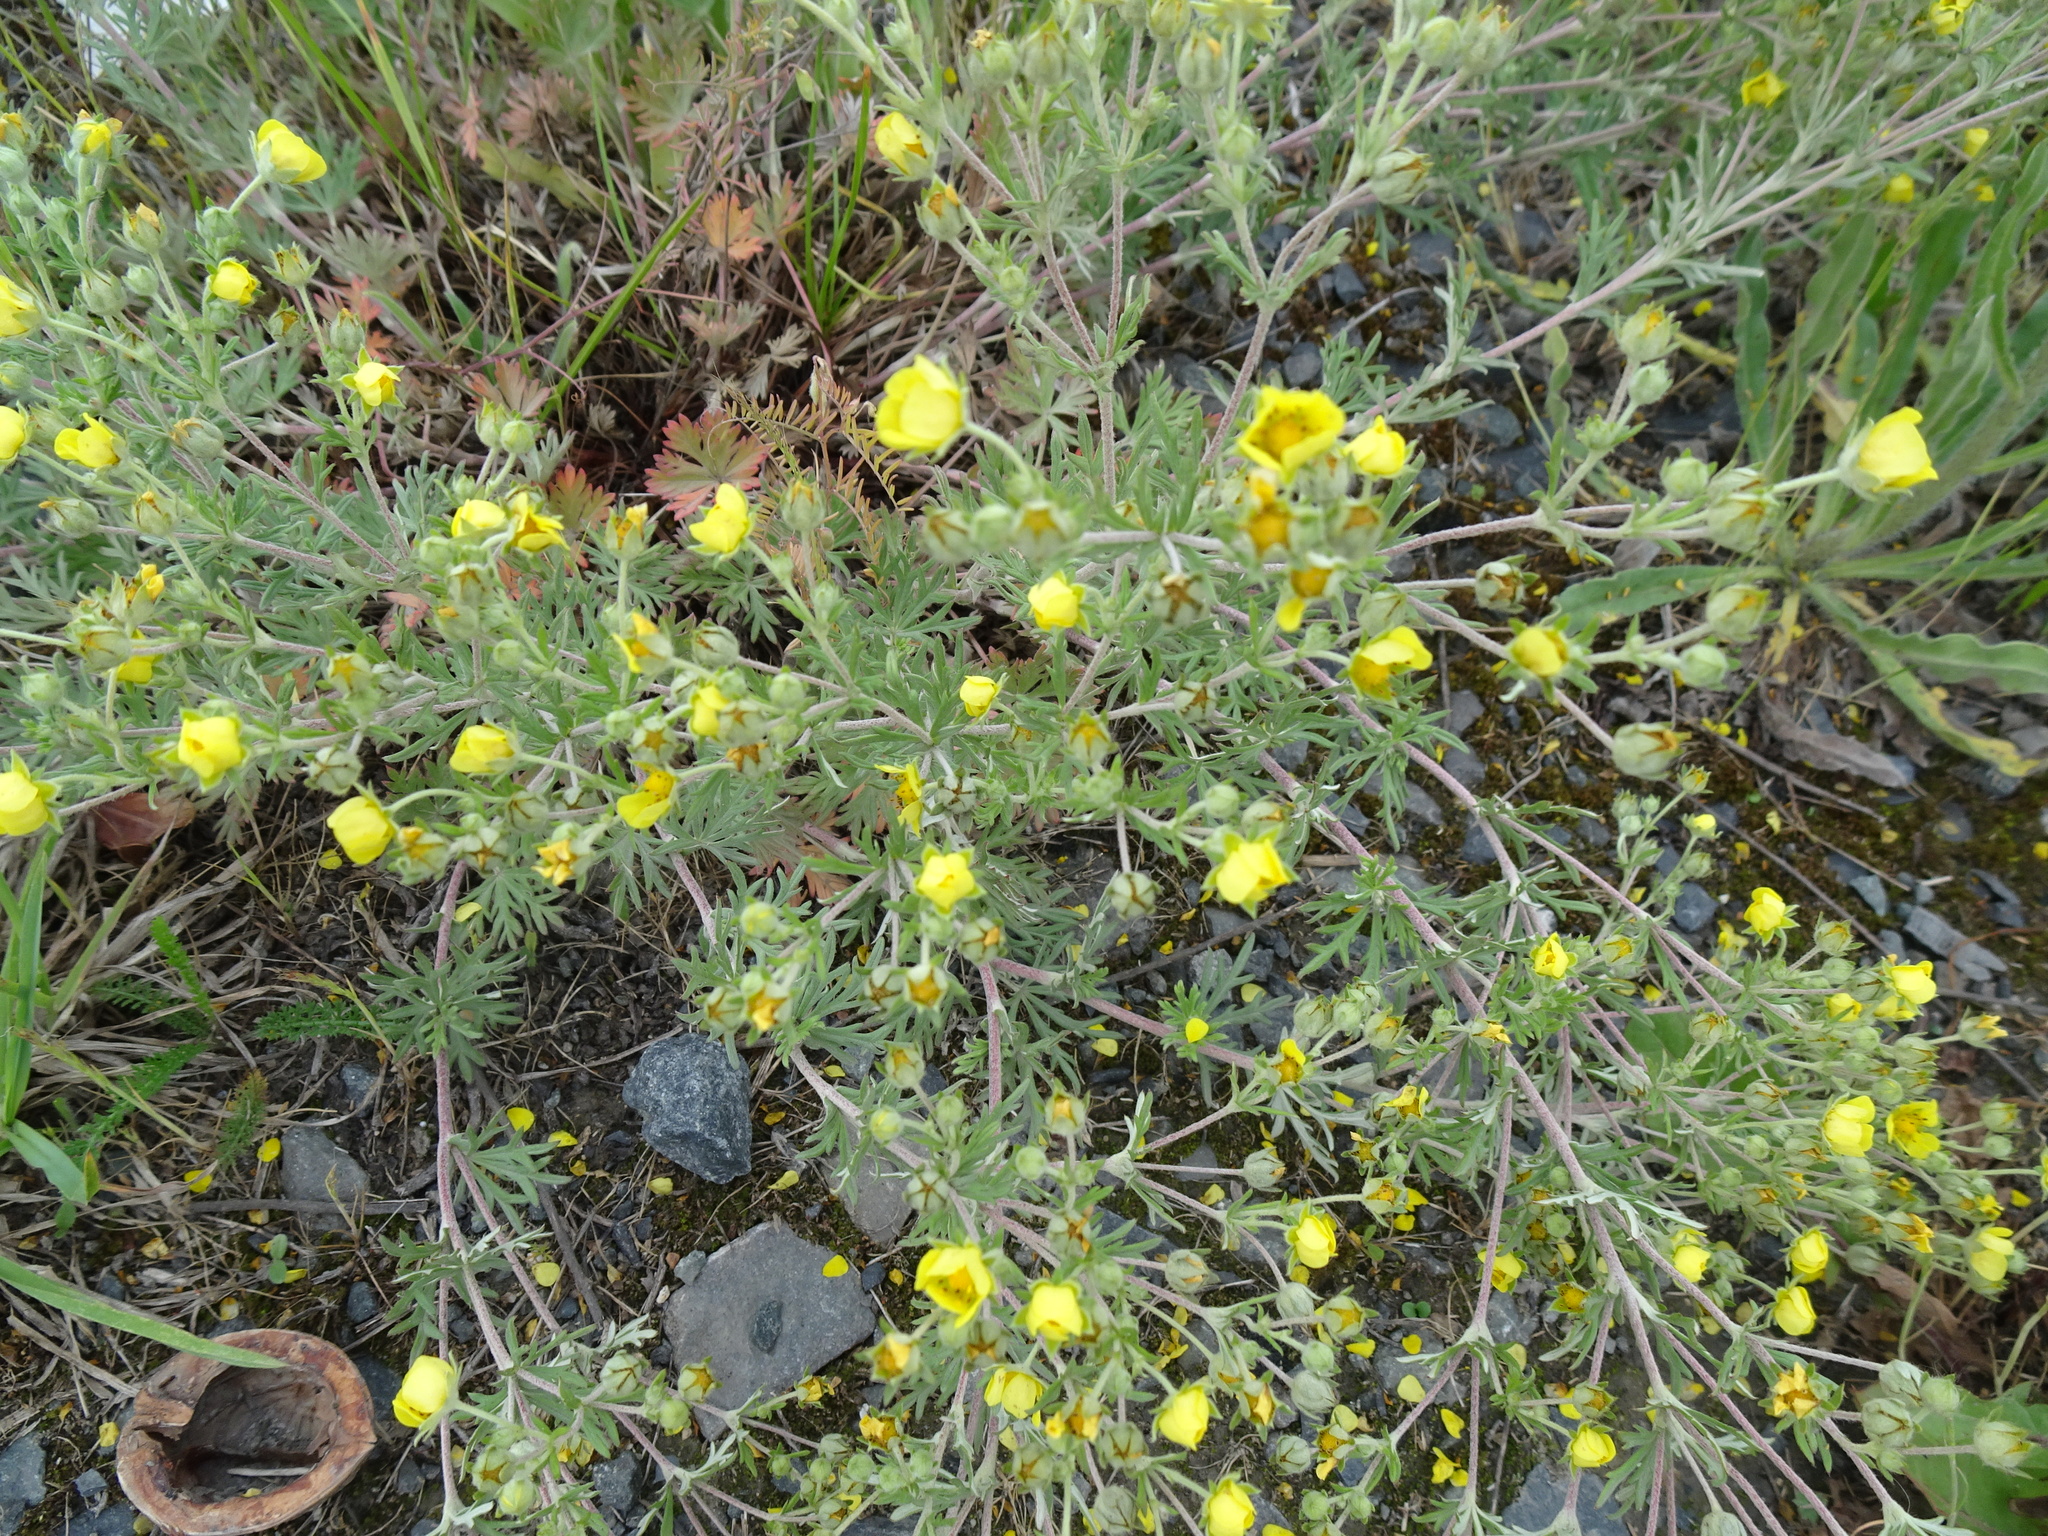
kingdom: Plantae
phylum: Tracheophyta
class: Magnoliopsida
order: Rosales
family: Rosaceae
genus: Potentilla
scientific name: Potentilla argentea
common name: Hoary cinquefoil
